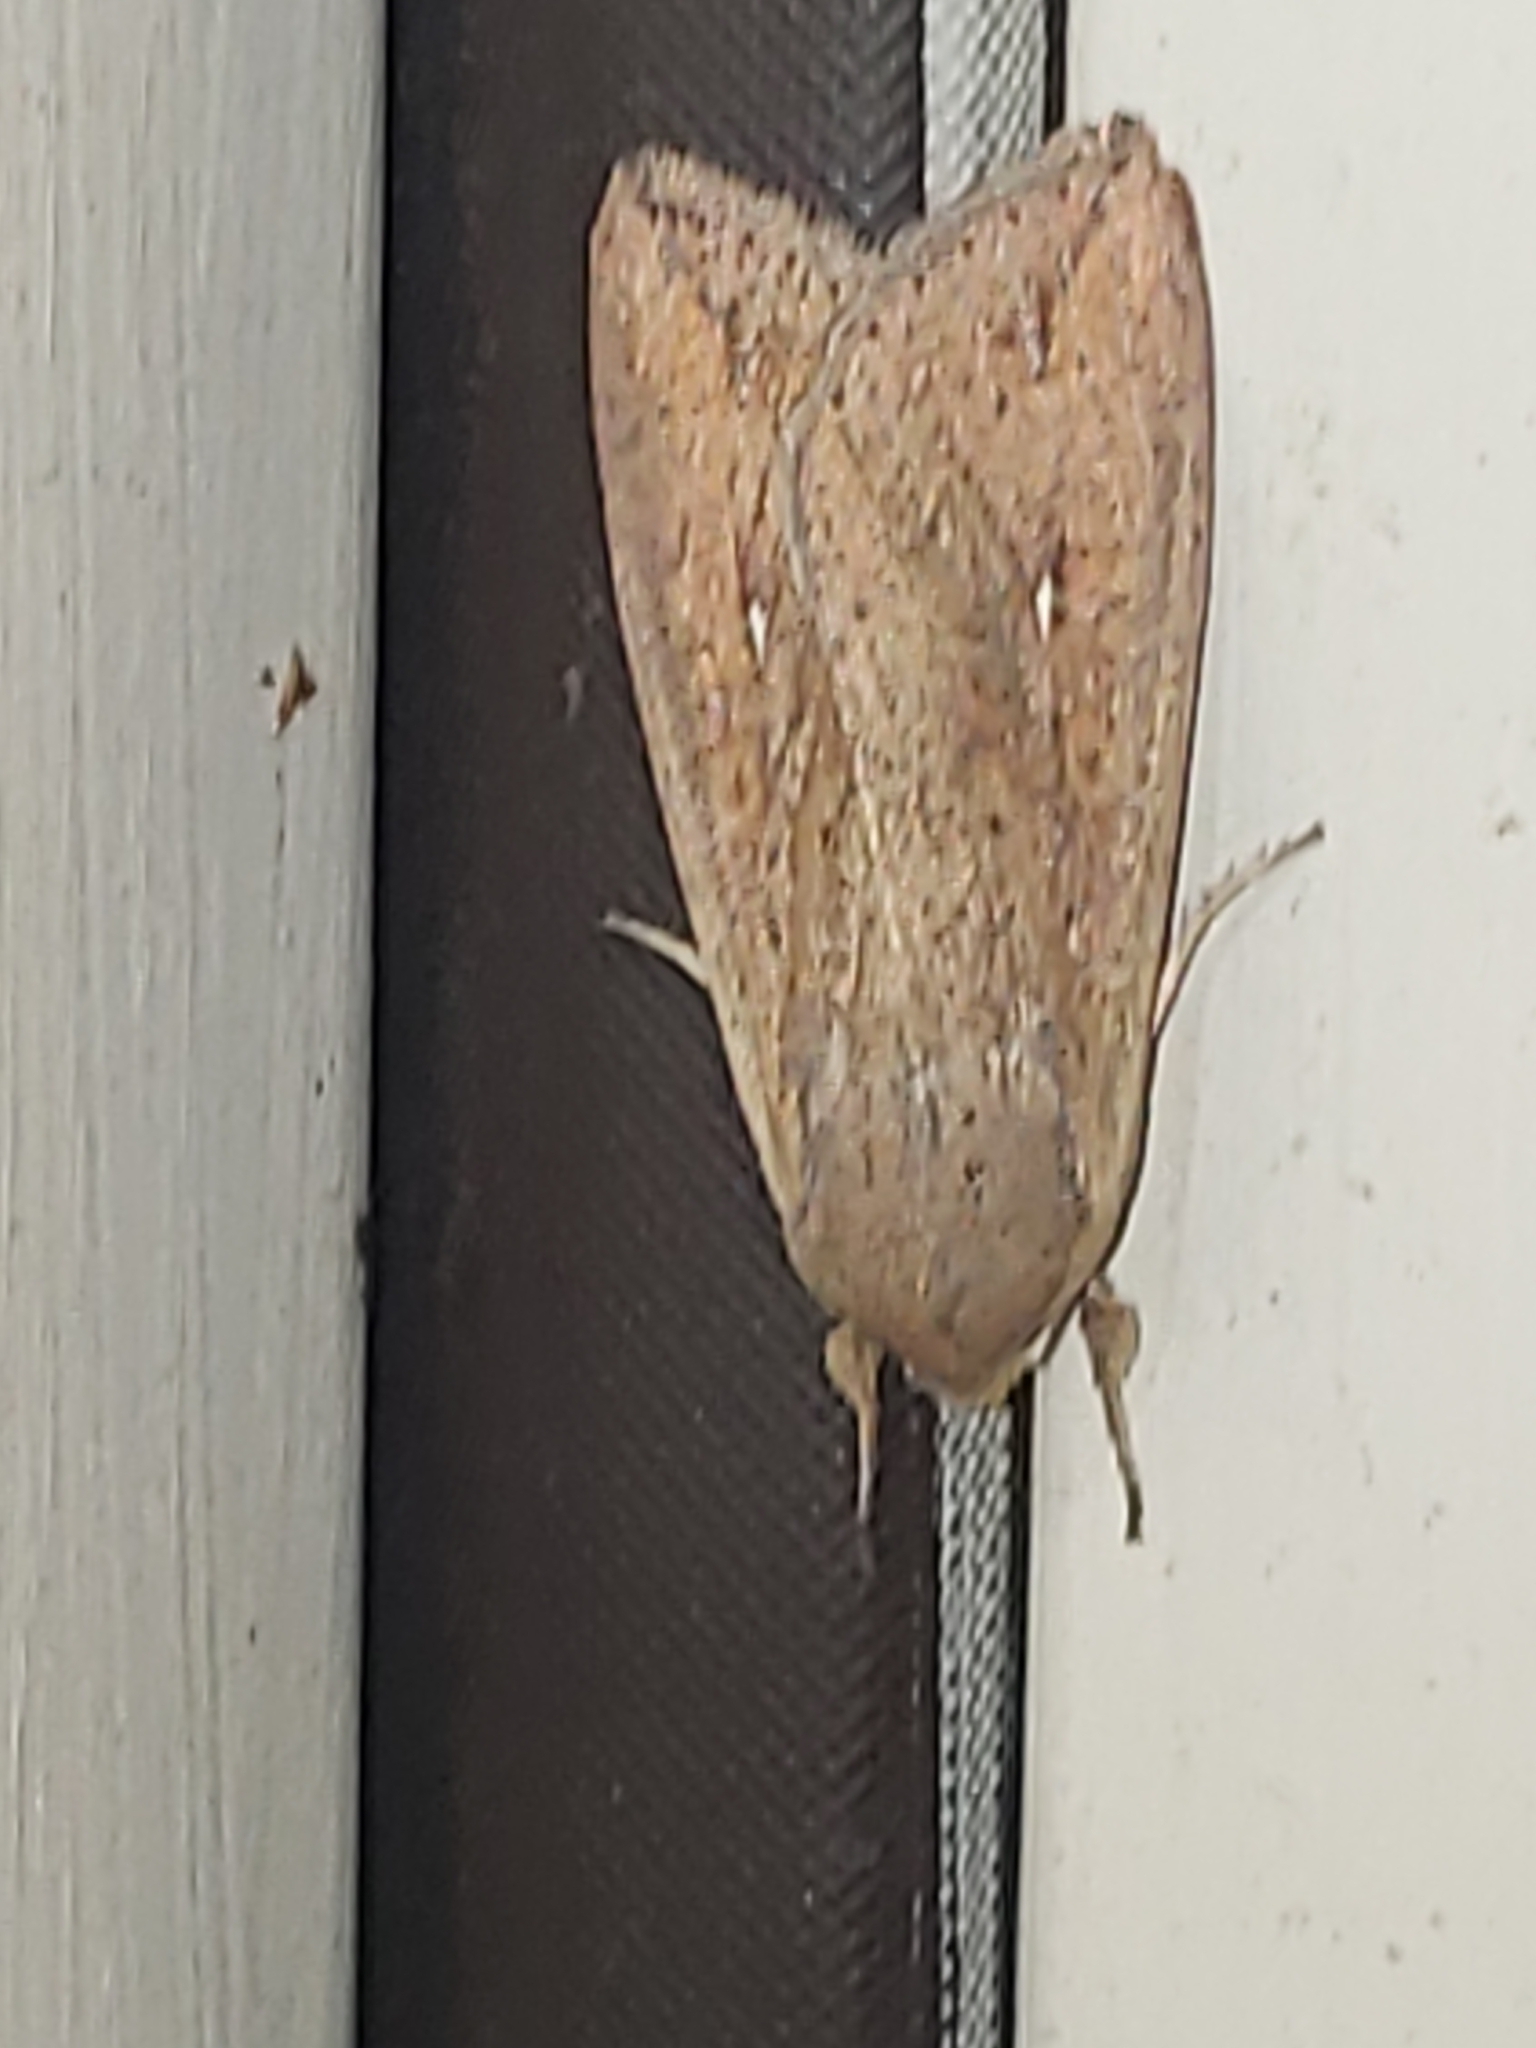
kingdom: Animalia
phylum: Arthropoda
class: Insecta
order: Lepidoptera
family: Noctuidae
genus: Mythimna
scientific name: Mythimna unipuncta
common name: White-speck
